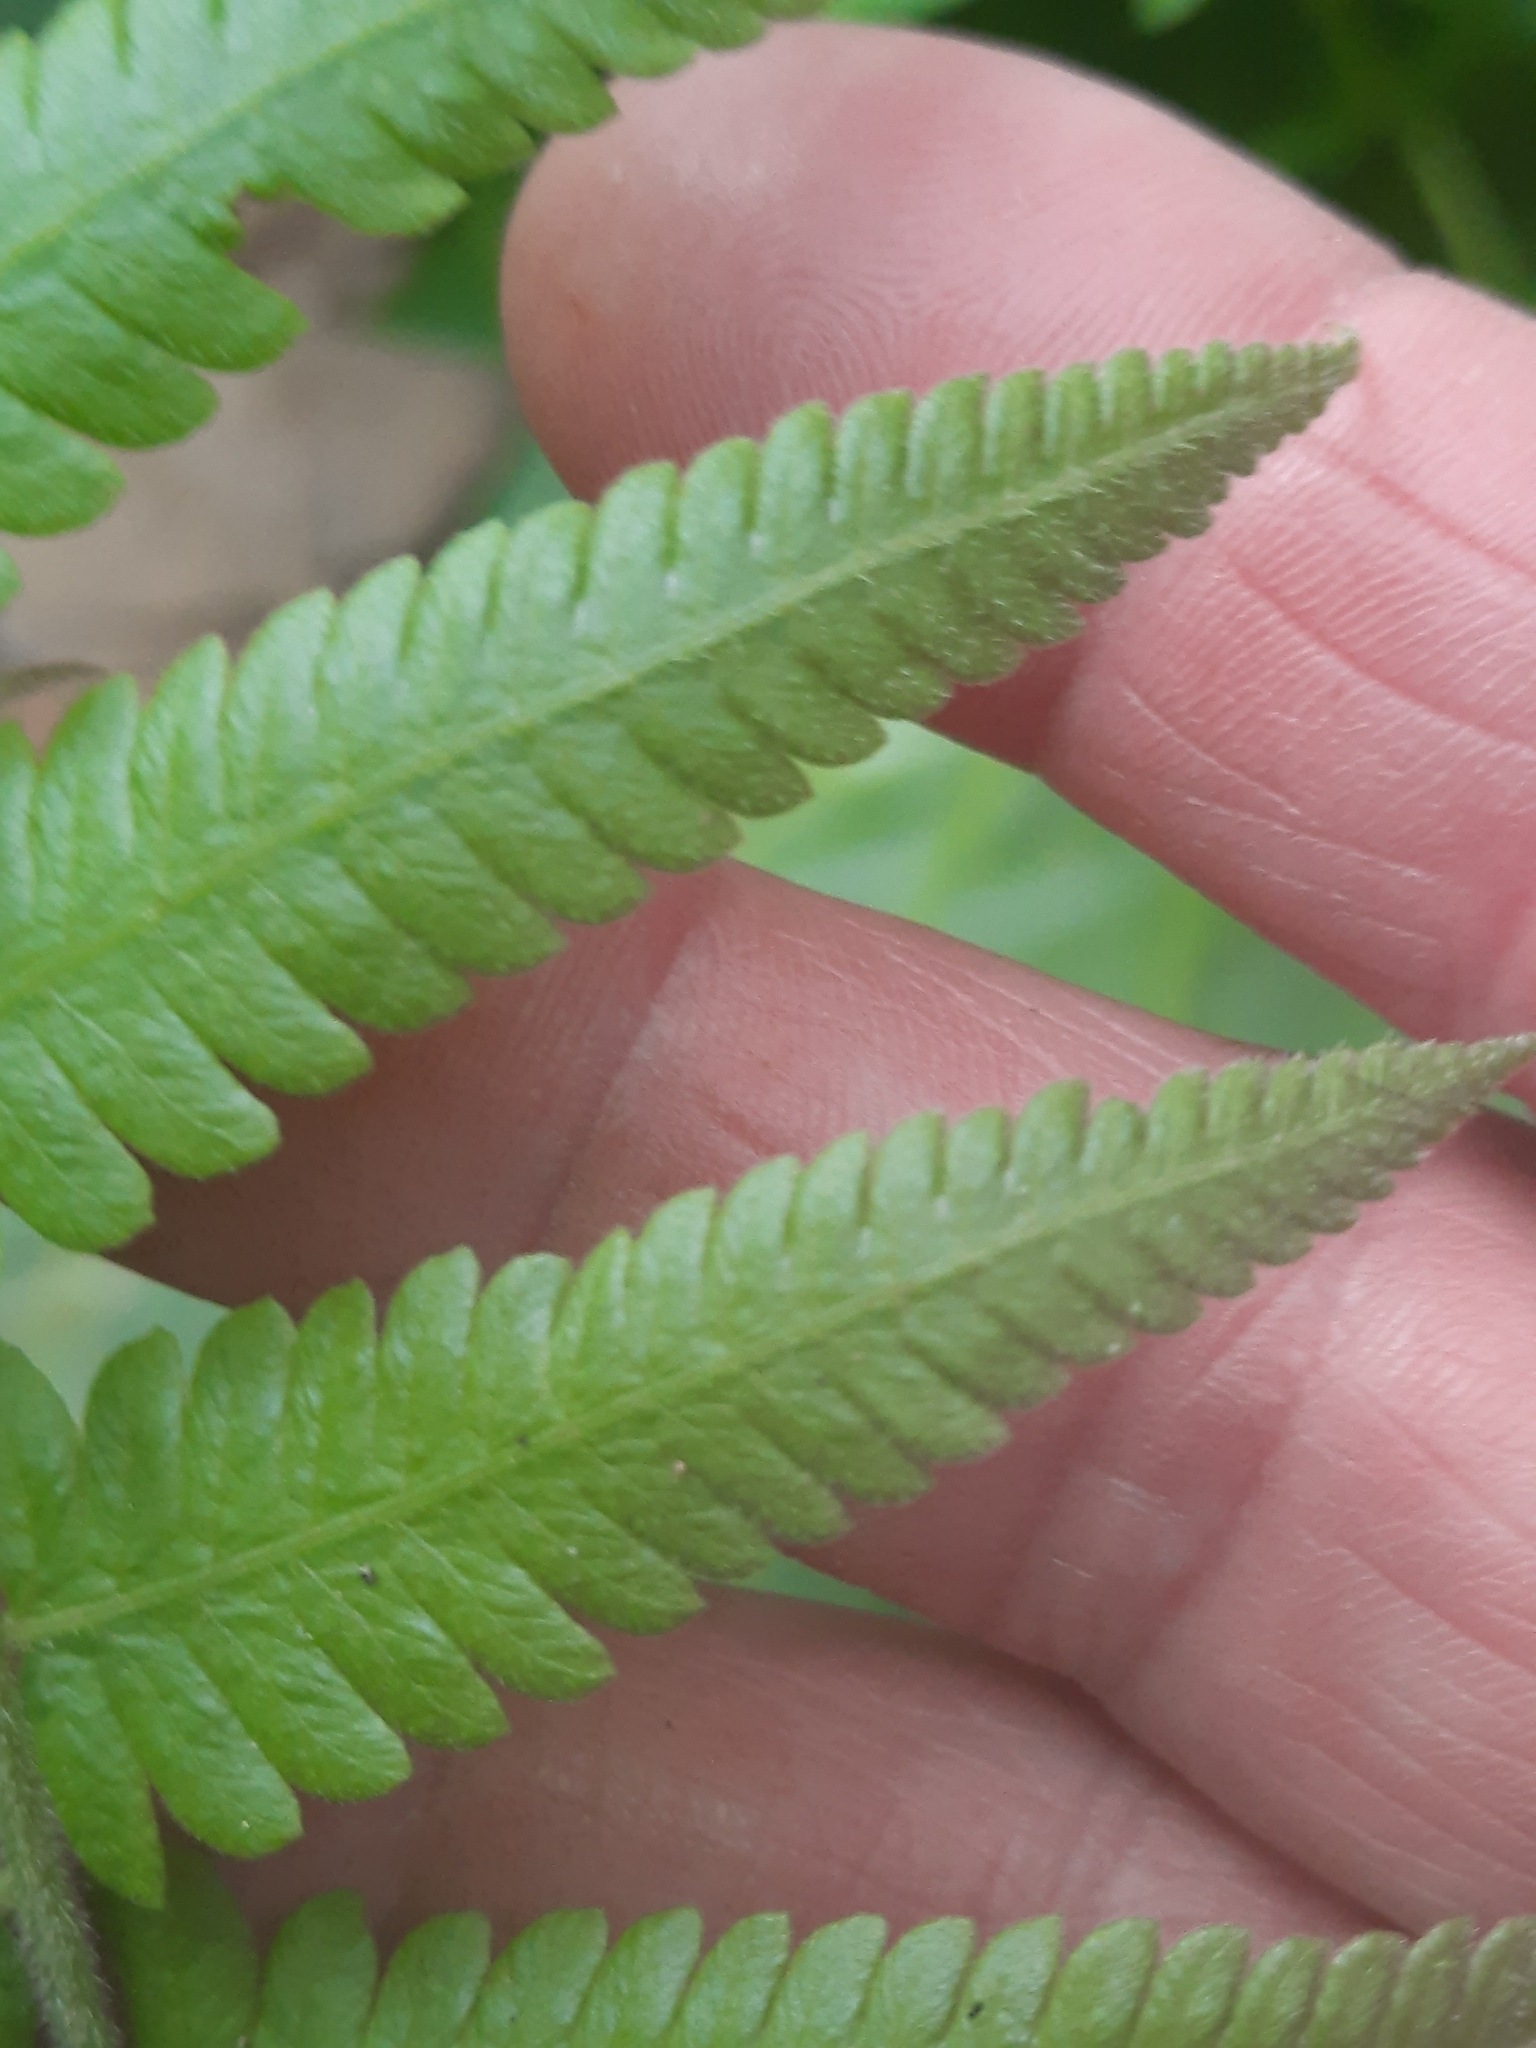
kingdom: Plantae
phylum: Tracheophyta
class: Polypodiopsida
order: Polypodiales
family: Thelypteridaceae
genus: Christella
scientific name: Christella parasitica
